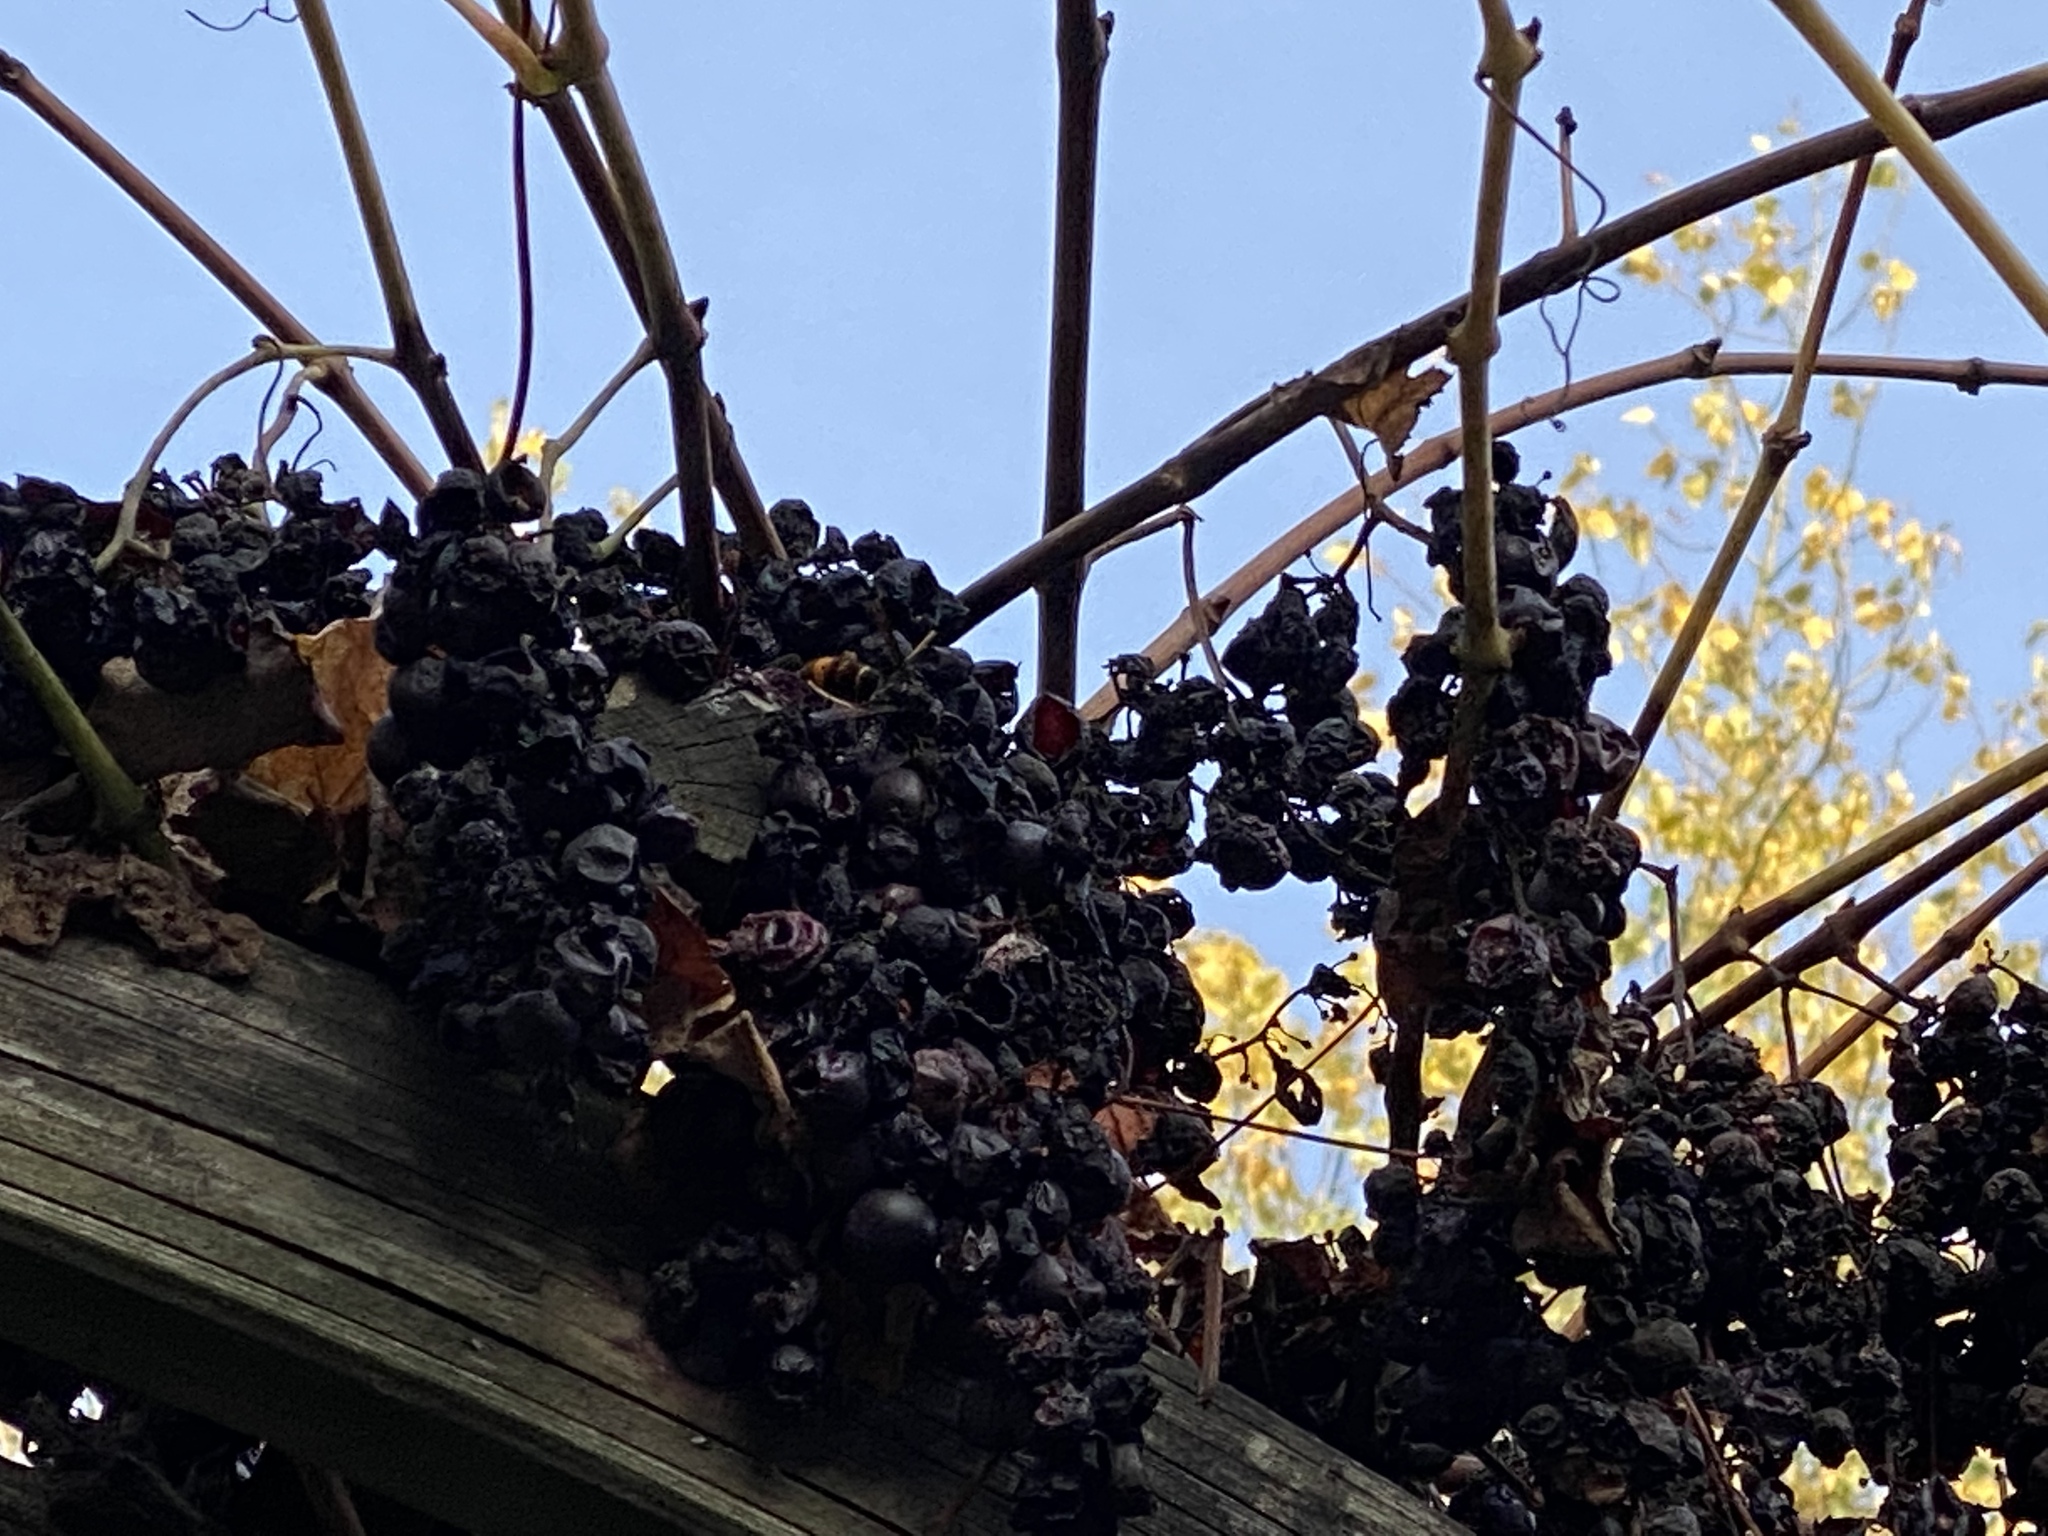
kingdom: Animalia
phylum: Arthropoda
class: Insecta
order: Hymenoptera
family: Vespidae
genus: Vespa
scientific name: Vespa velutina
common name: Asian hornet
